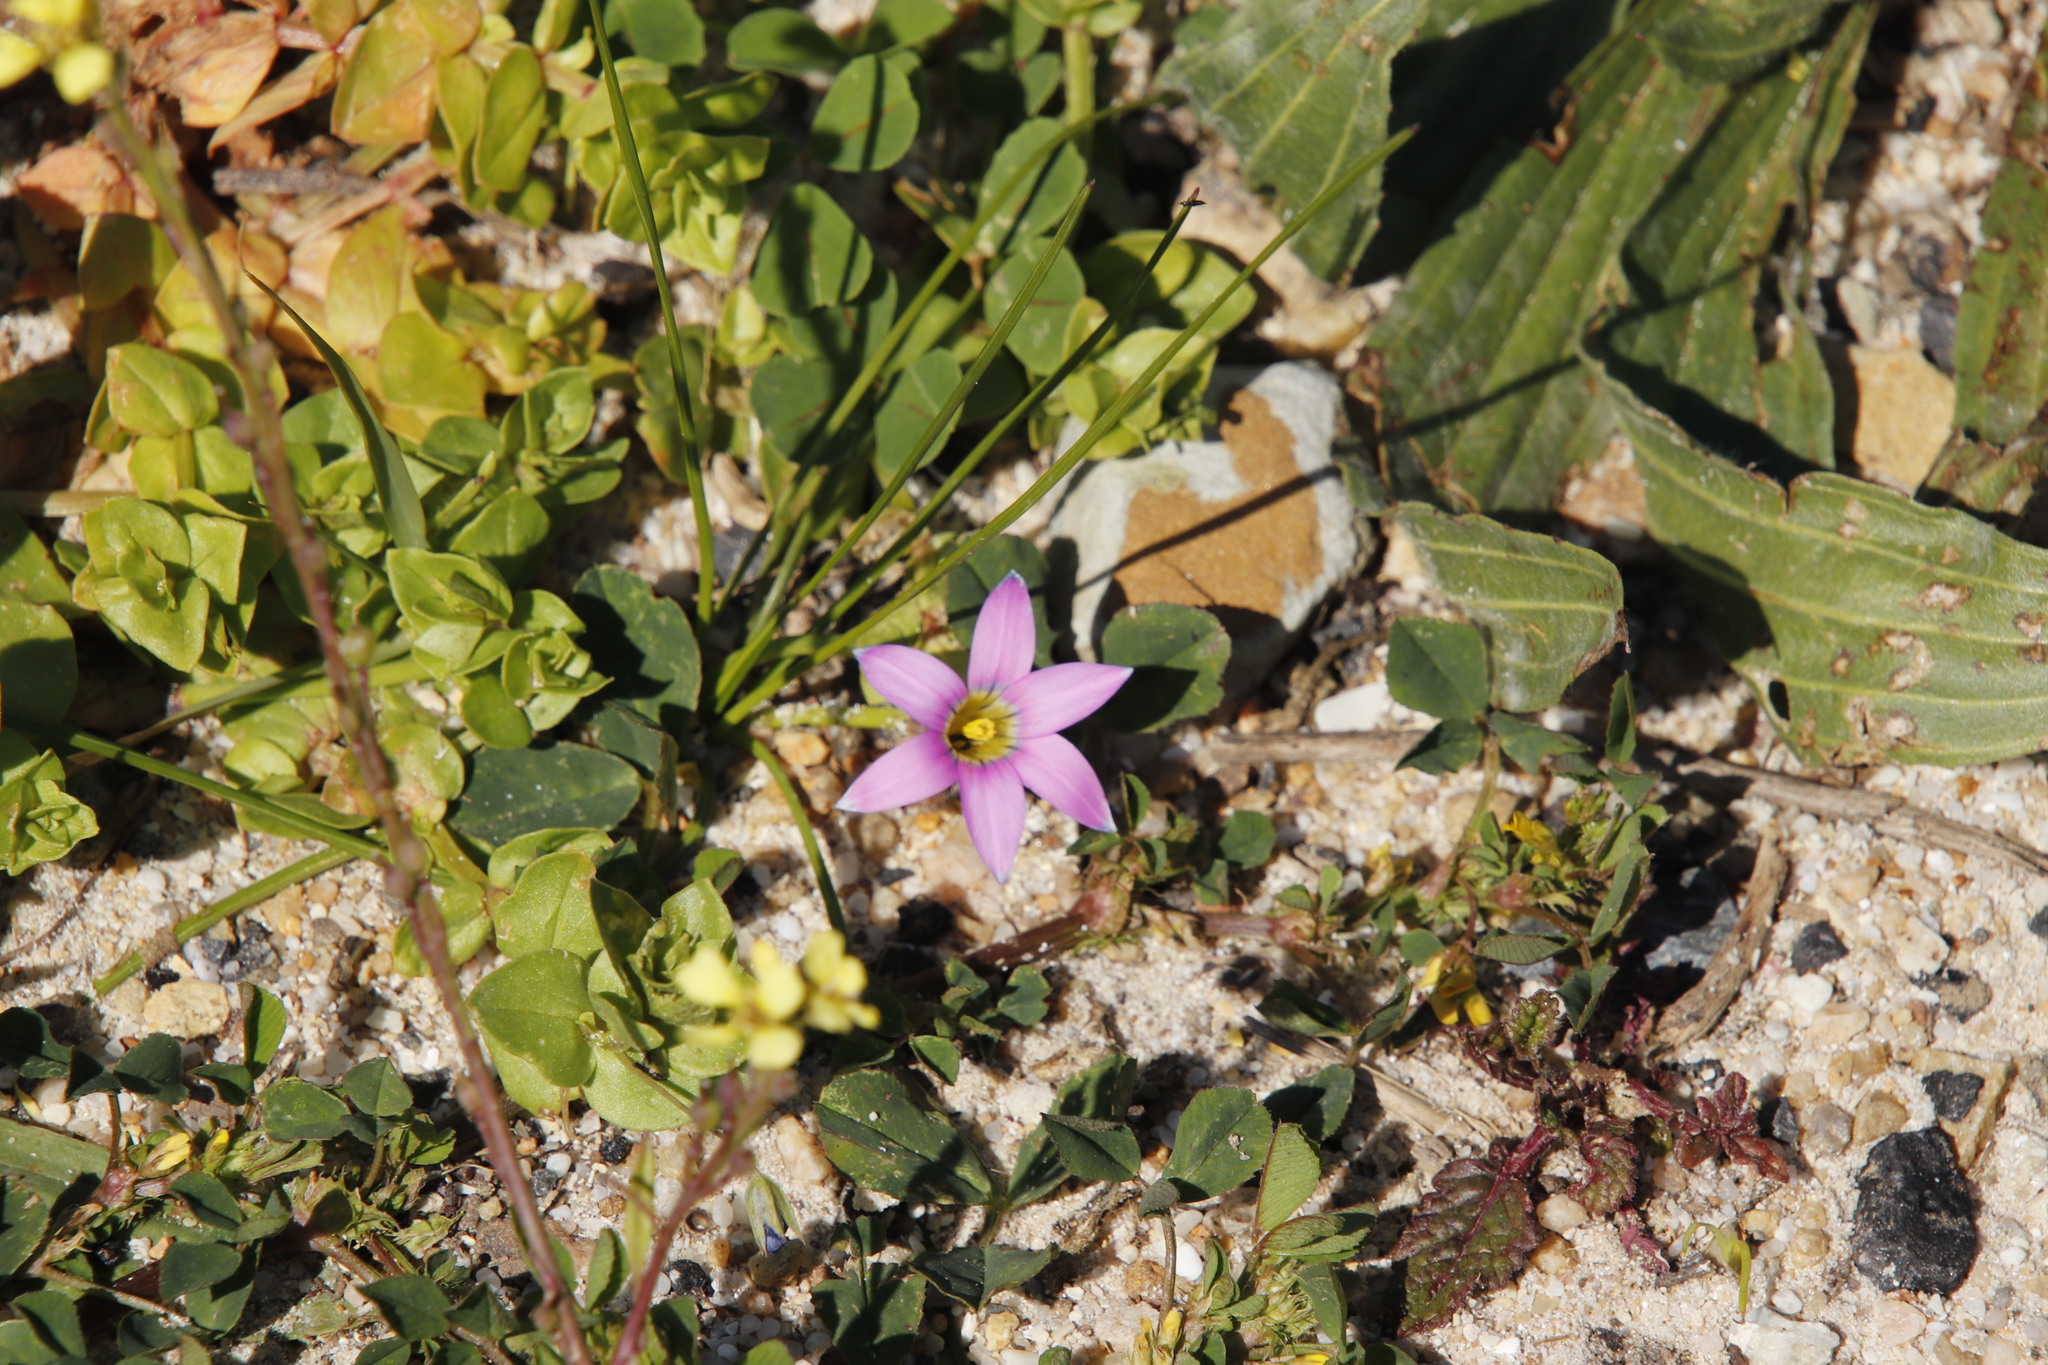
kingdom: Plantae
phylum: Tracheophyta
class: Liliopsida
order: Asparagales
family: Iridaceae
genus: Romulea
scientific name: Romulea rosea
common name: Oniongrass
